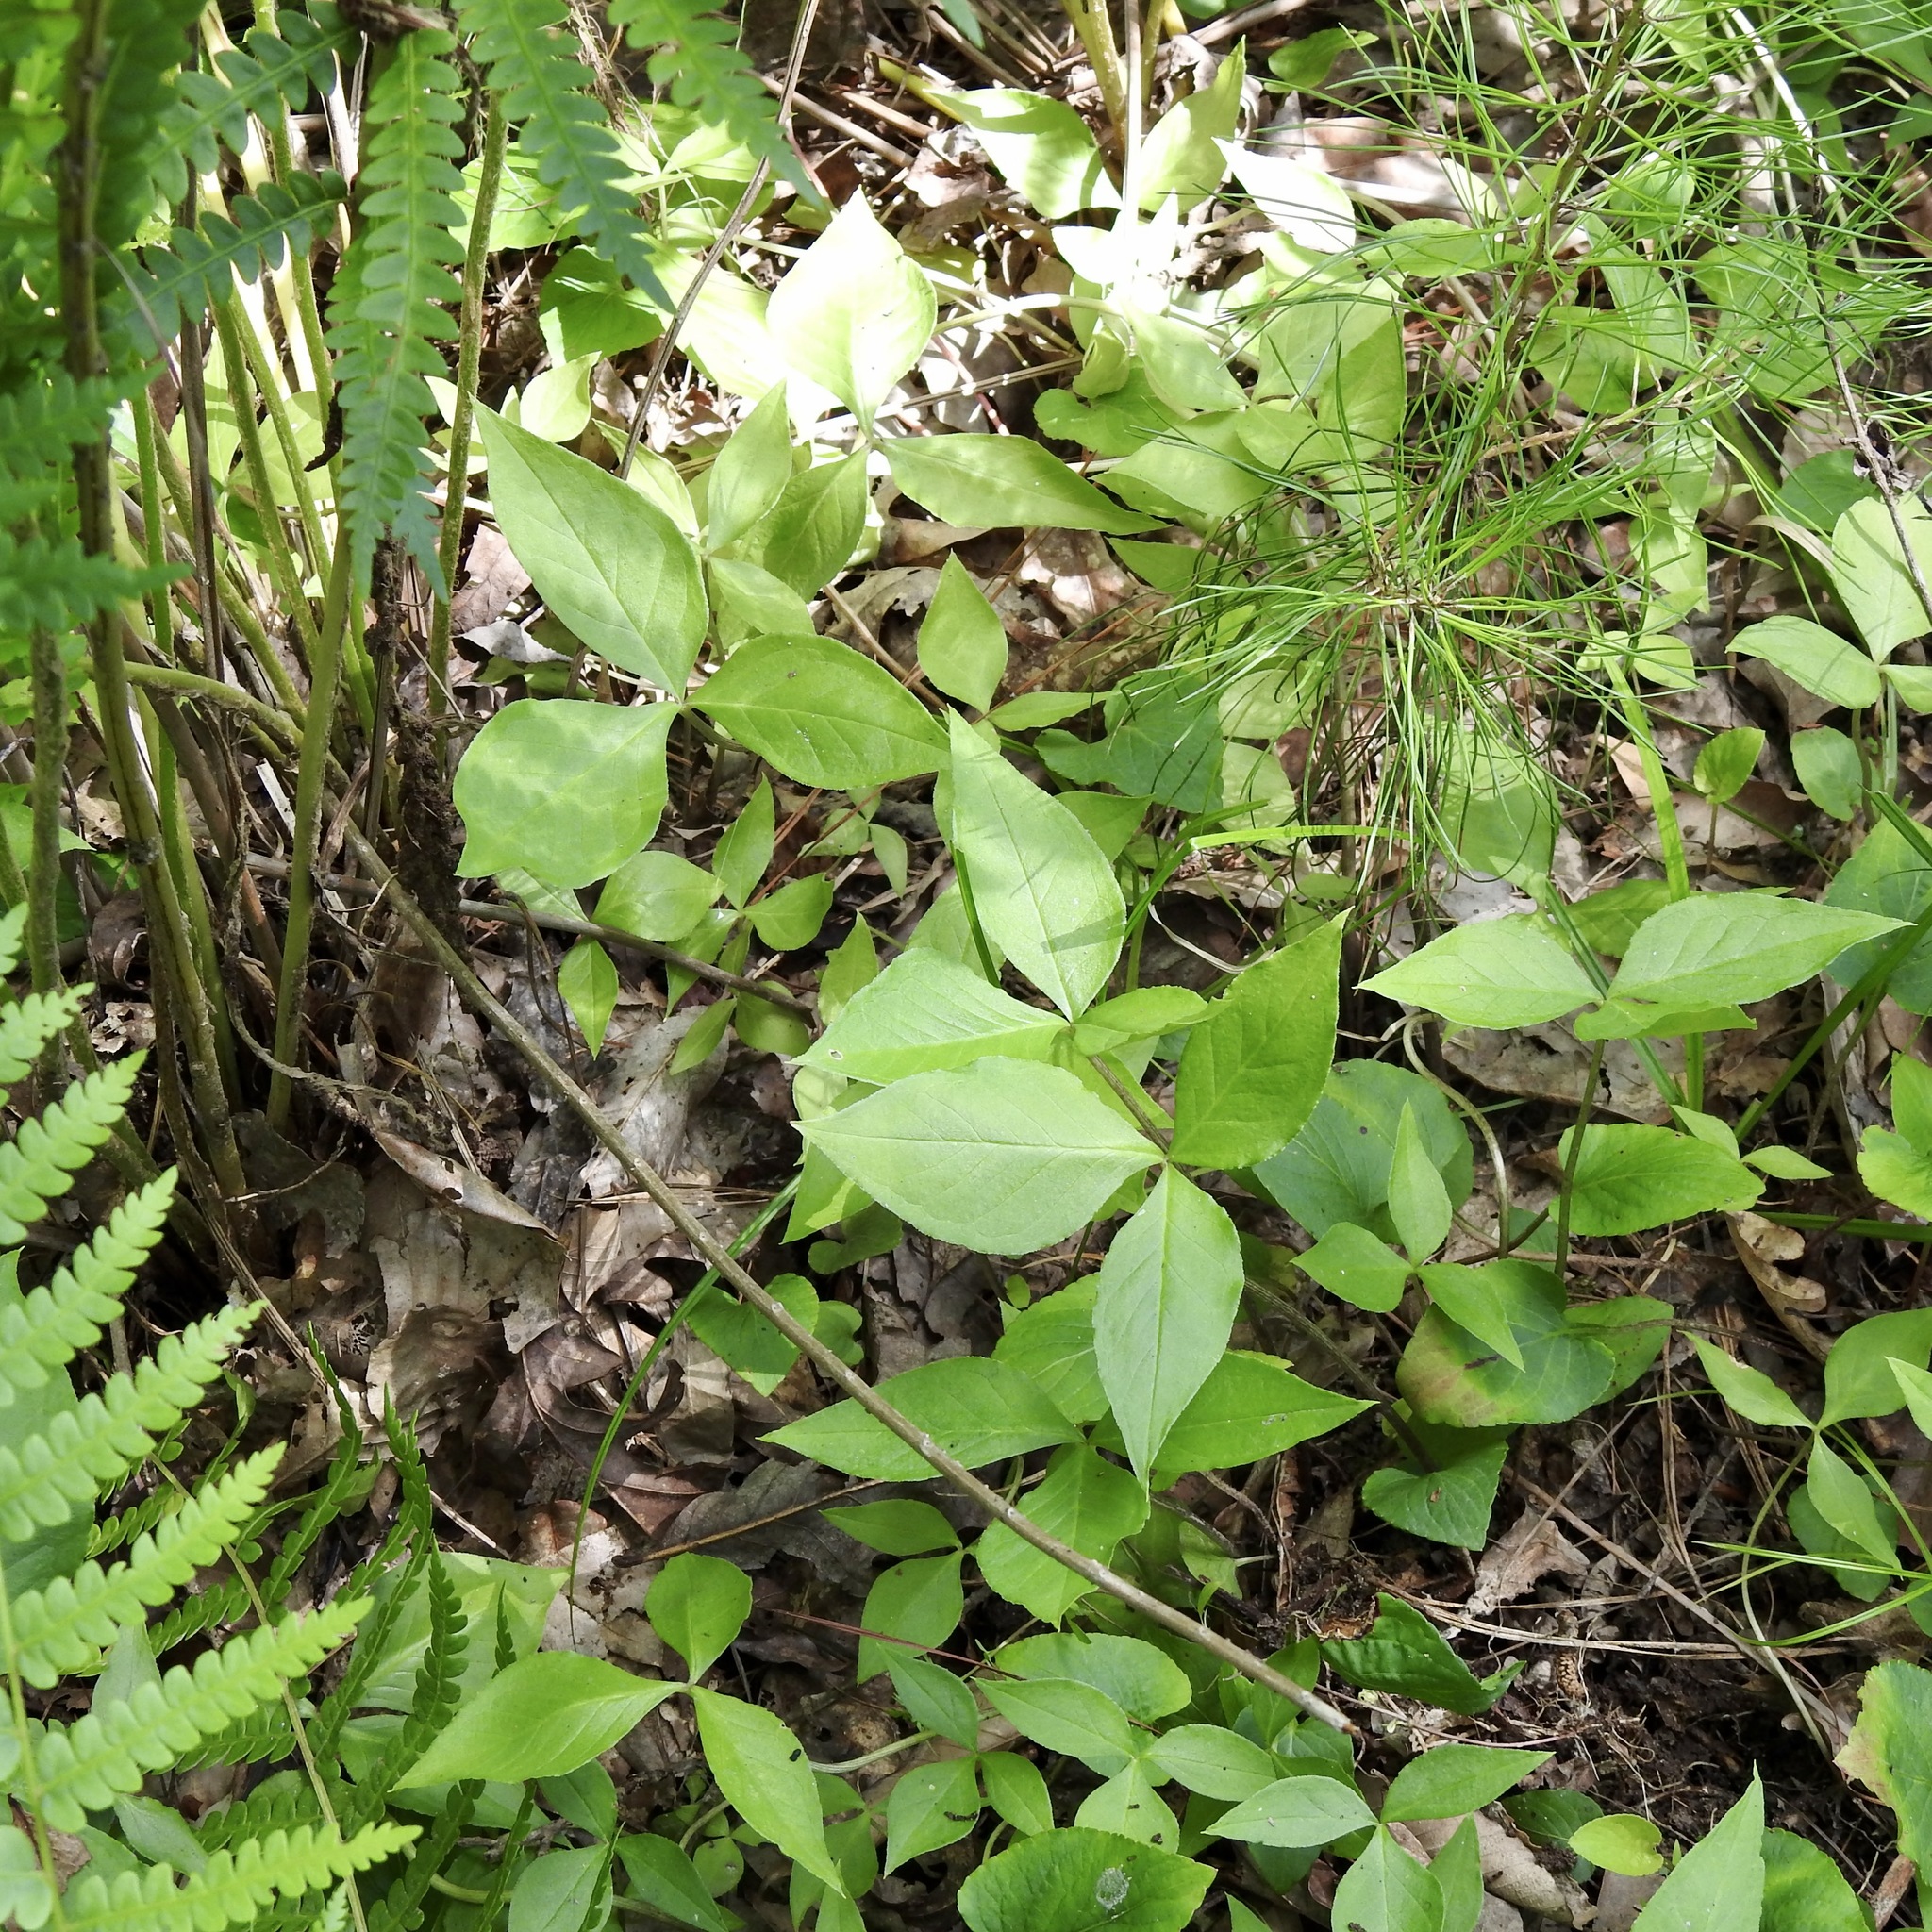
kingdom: Plantae
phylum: Tracheophyta
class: Liliopsida
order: Alismatales
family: Araceae
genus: Arisaema
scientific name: Arisaema triphyllum
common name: Jack-in-the-pulpit
